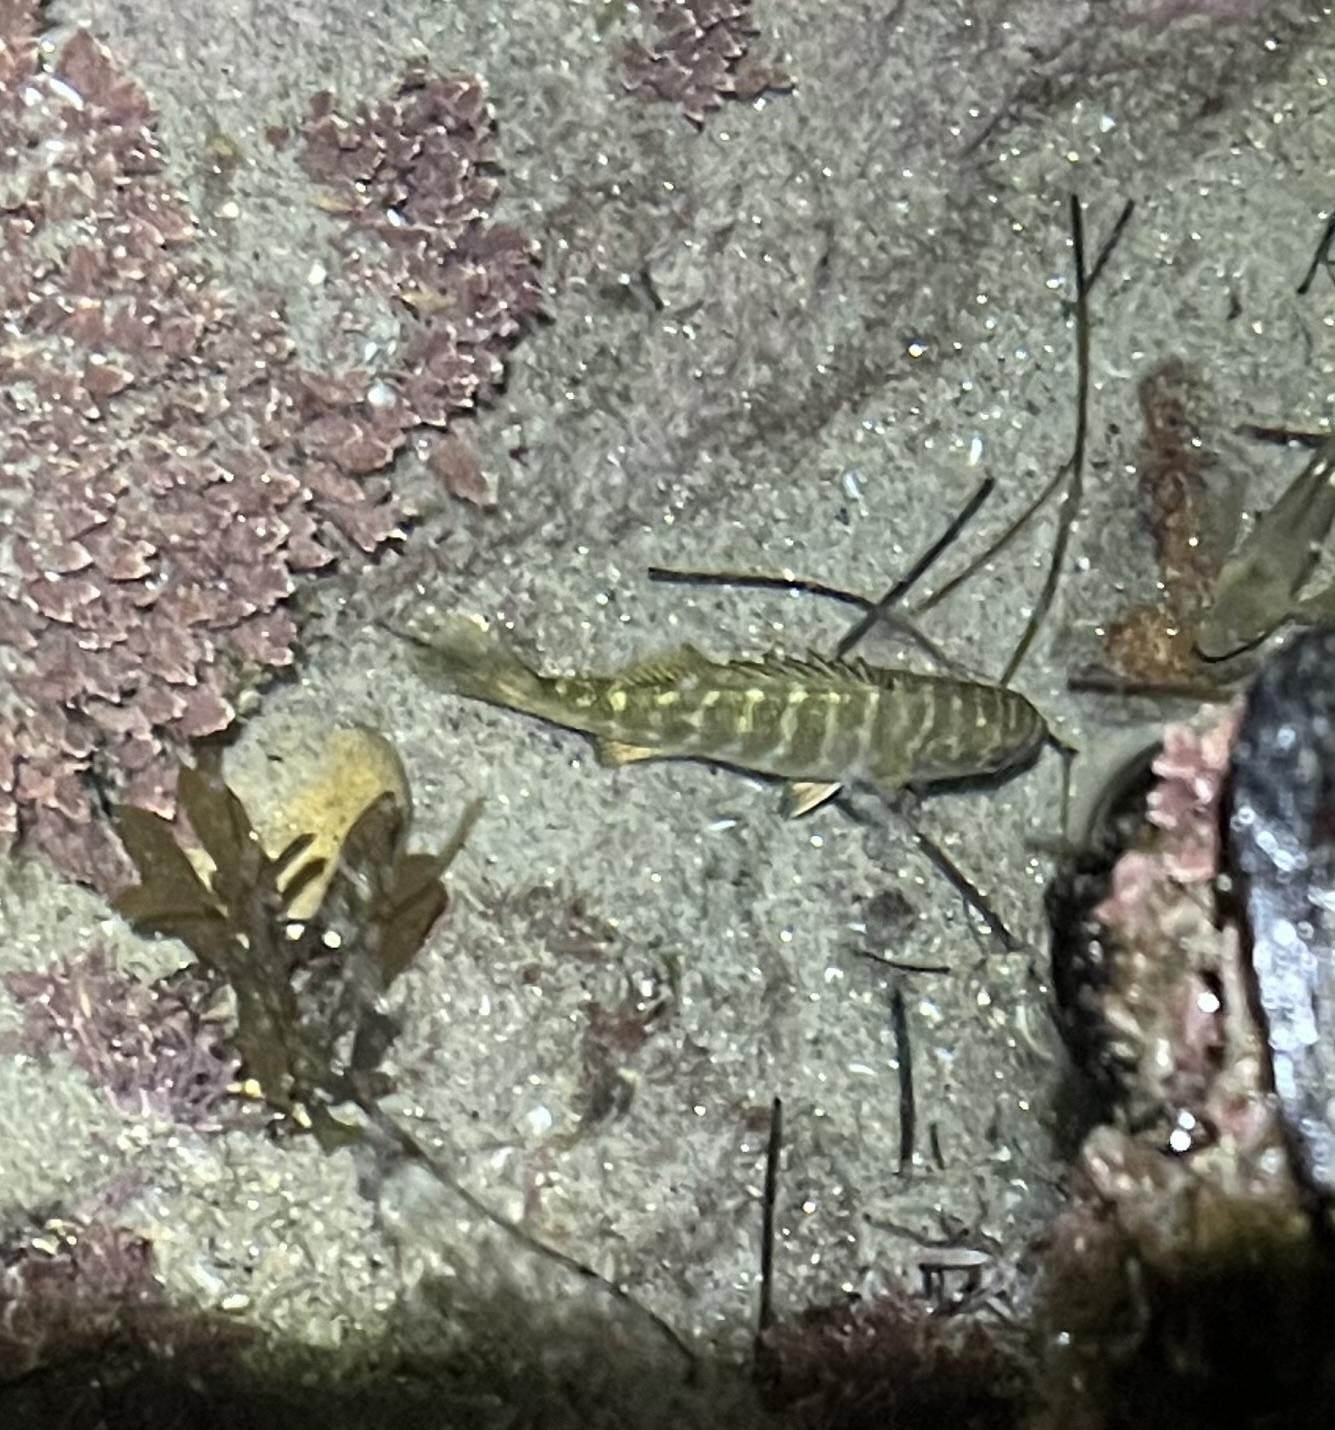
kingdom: Animalia
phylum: Chordata
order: Perciformes
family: Kyphosidae
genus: Kyphosus
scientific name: Kyphosus azureus
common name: Perch
